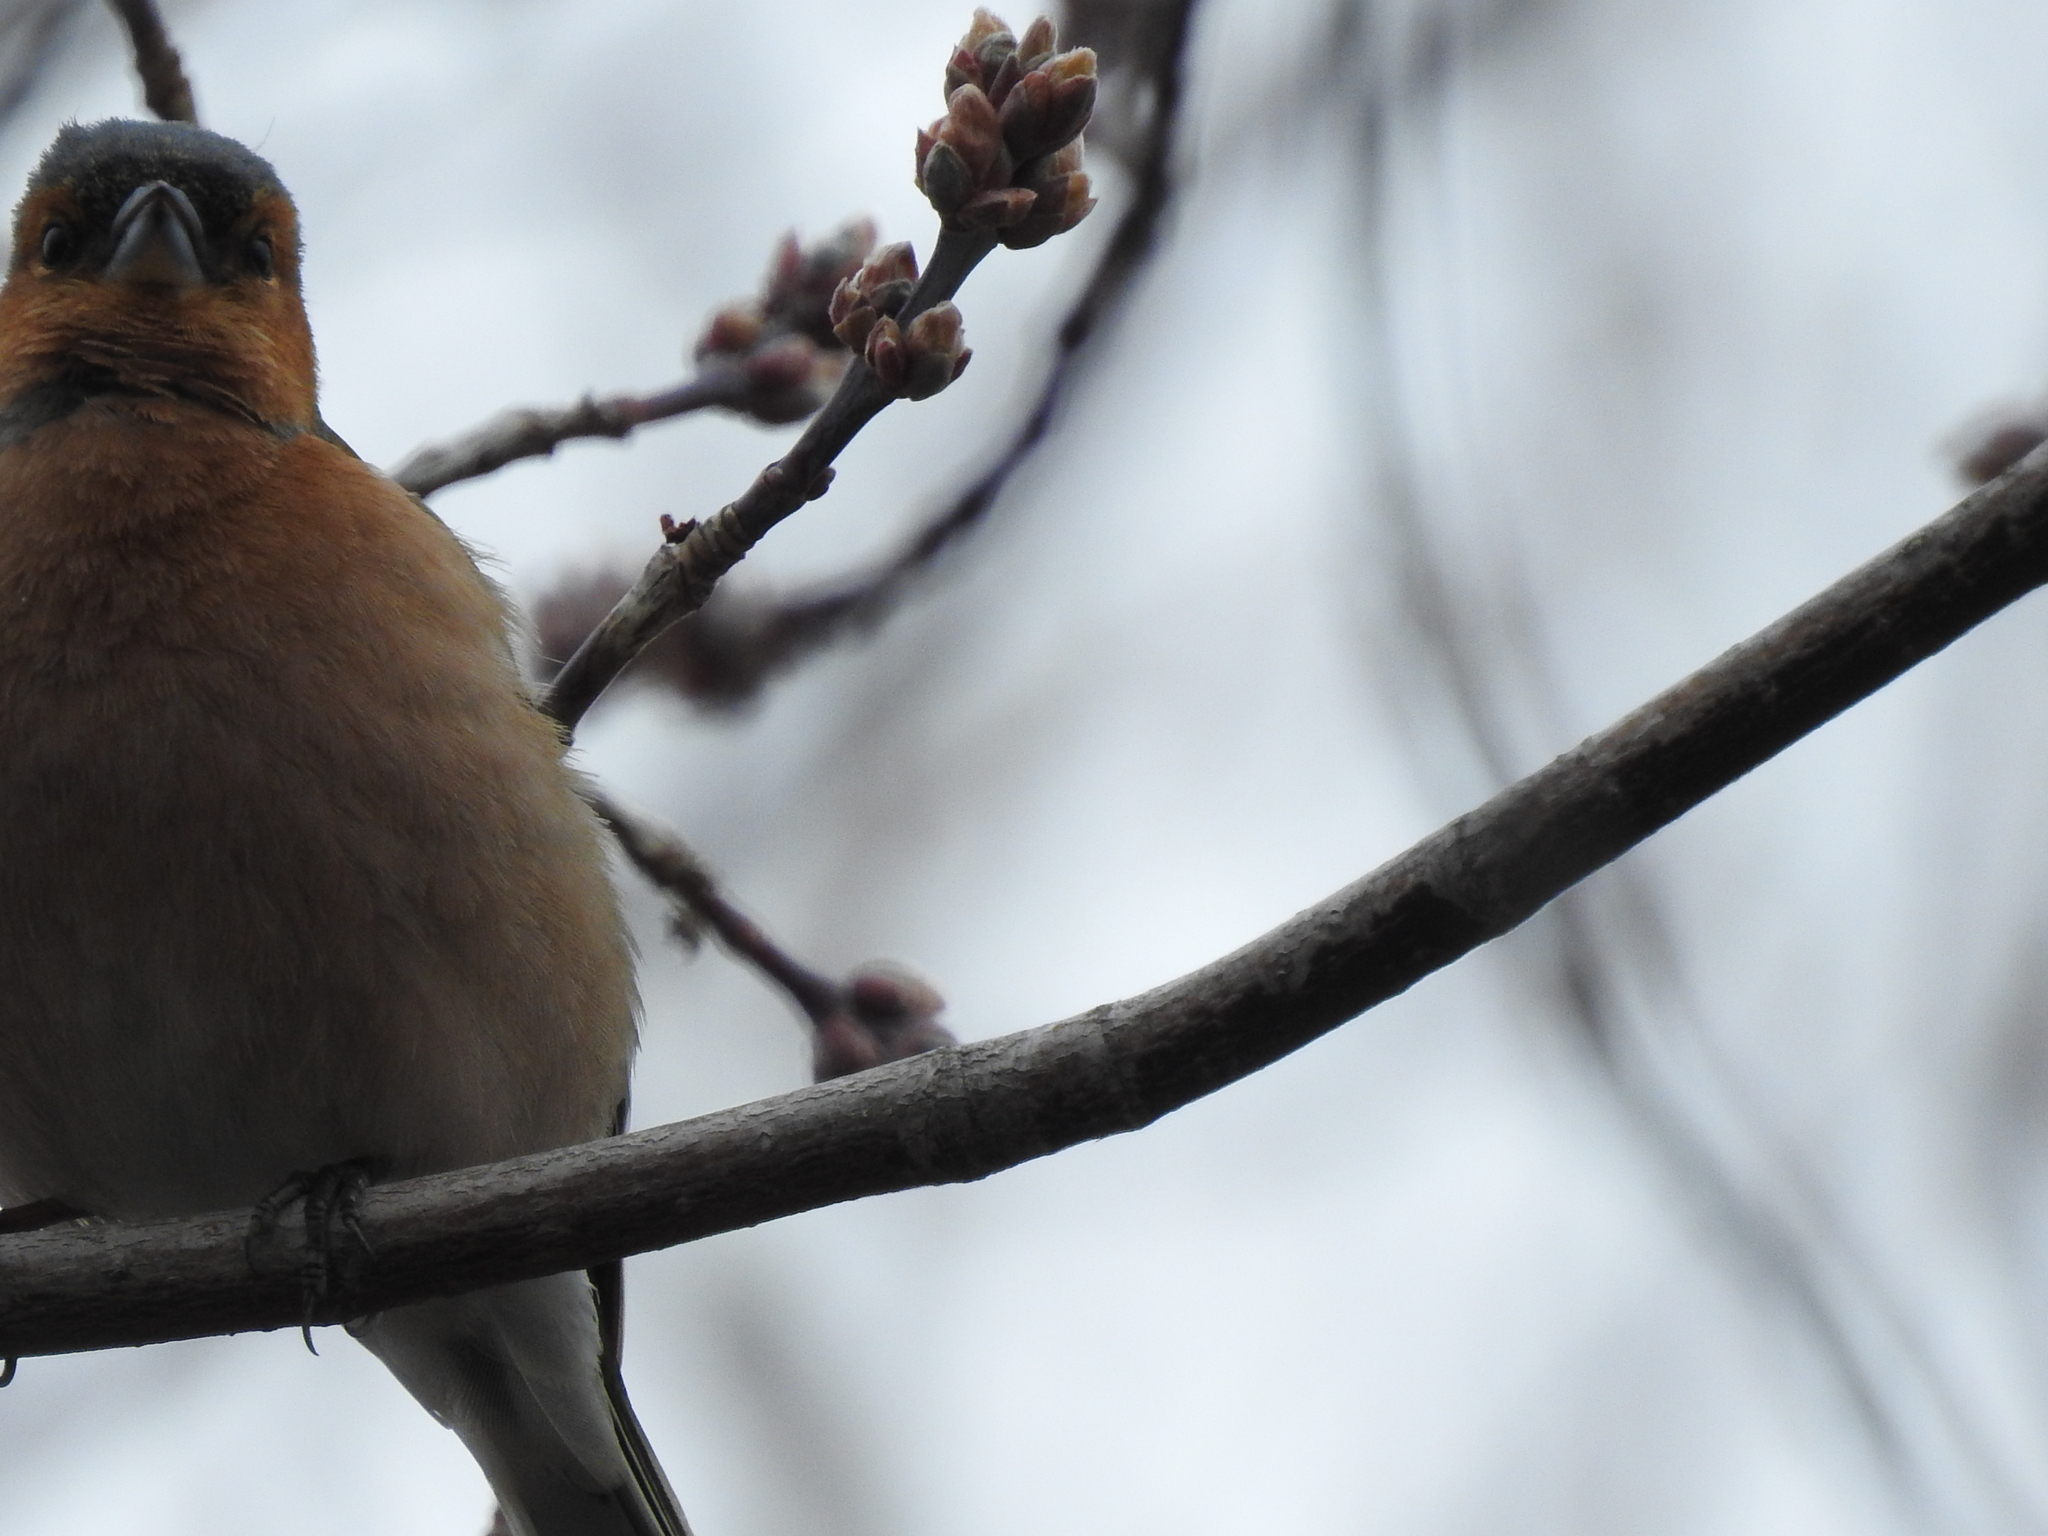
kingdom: Animalia
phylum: Chordata
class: Aves
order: Passeriformes
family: Fringillidae
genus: Fringilla
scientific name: Fringilla coelebs
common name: Common chaffinch
